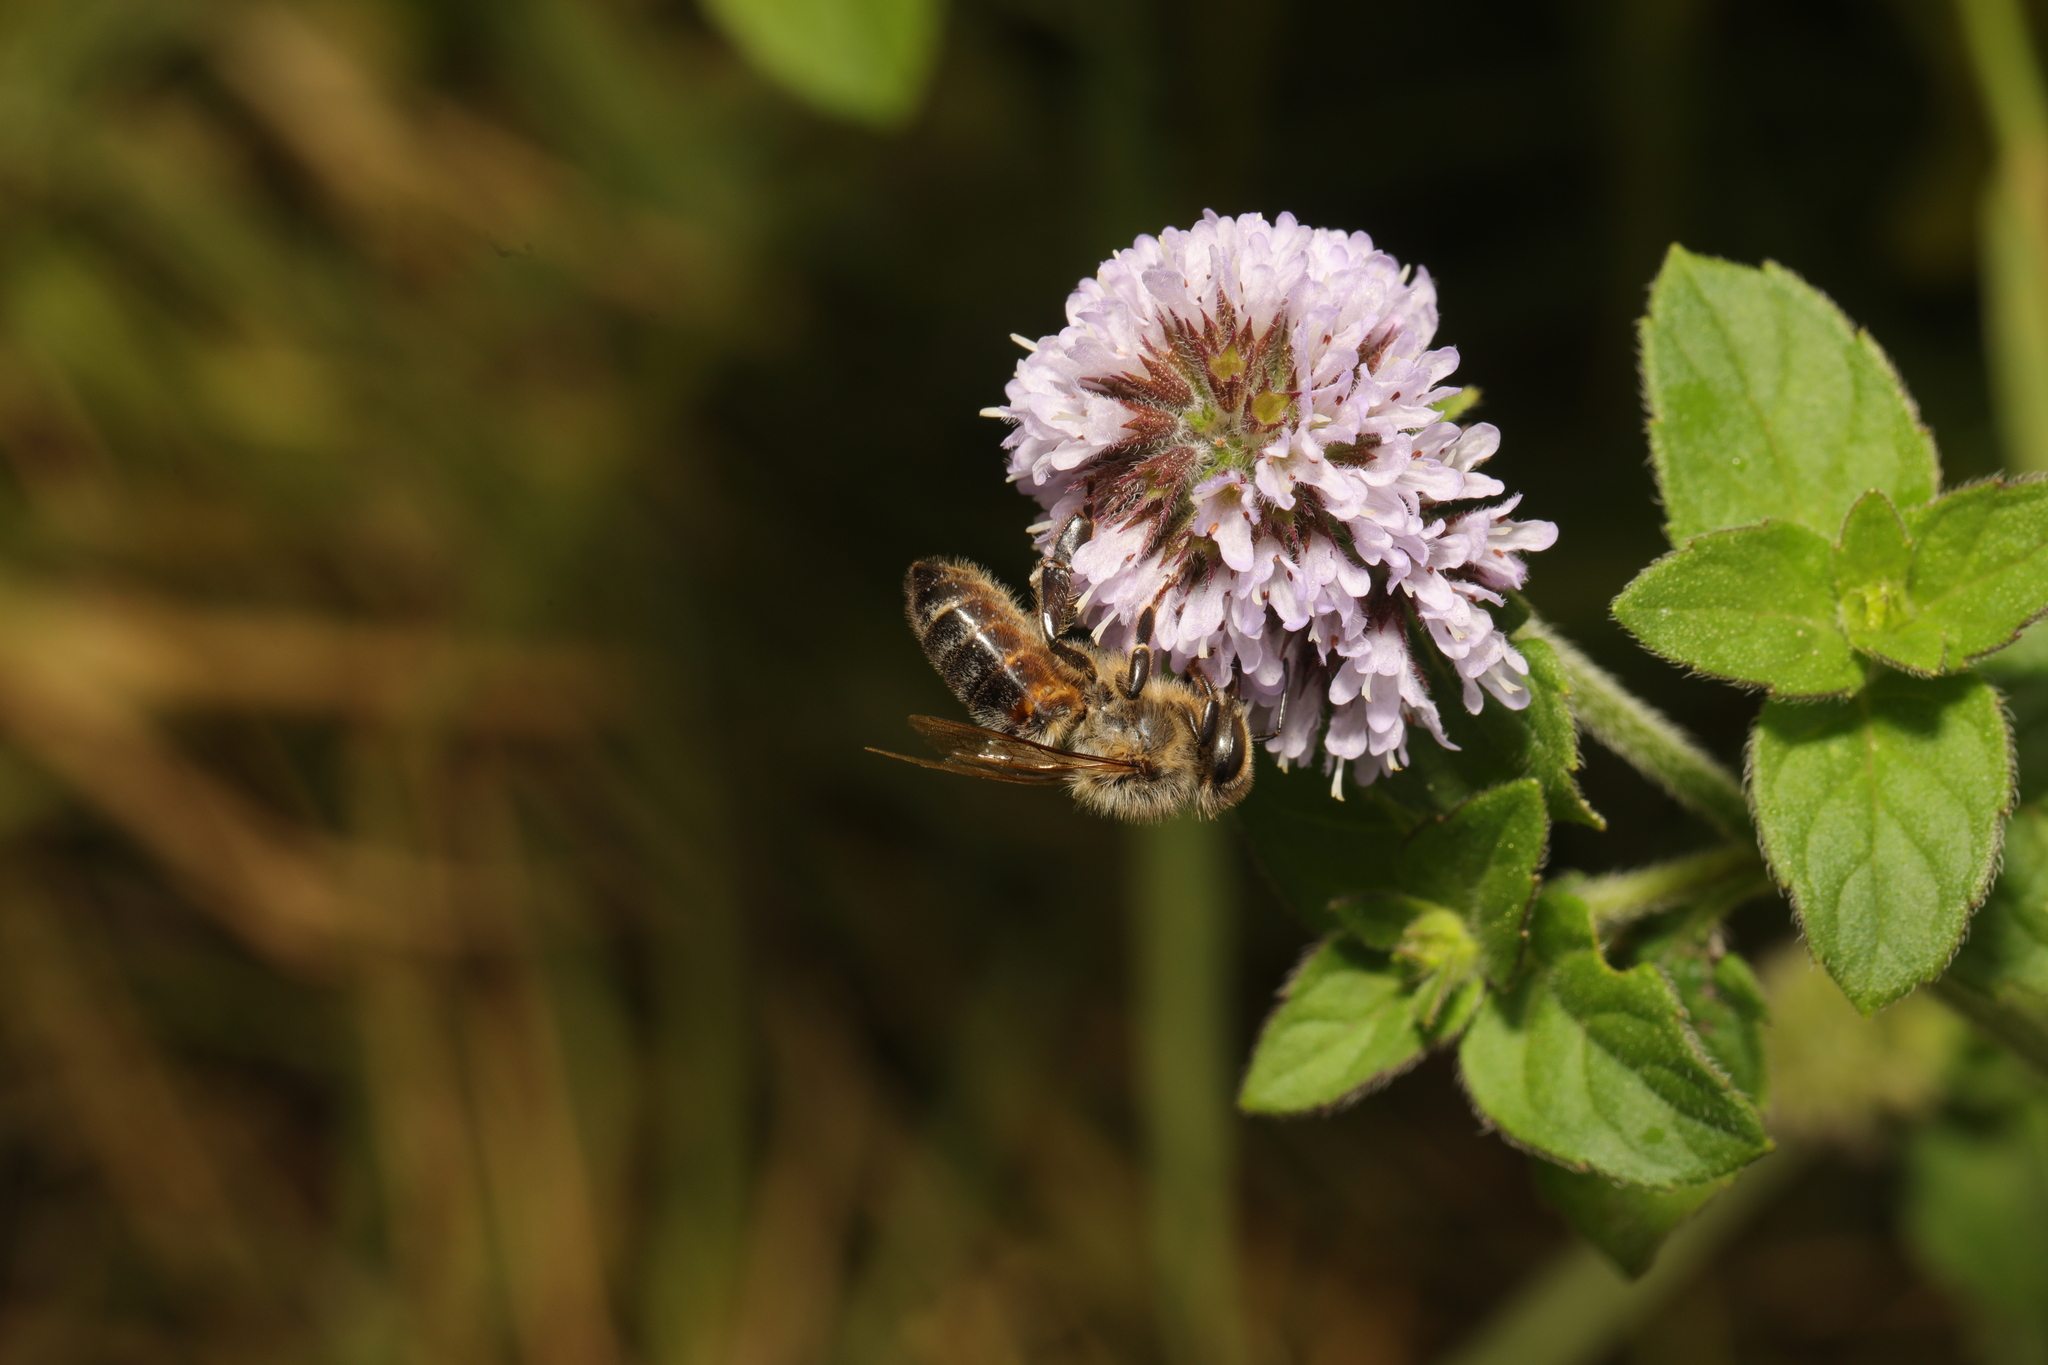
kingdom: Animalia
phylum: Arthropoda
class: Insecta
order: Hymenoptera
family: Apidae
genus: Apis
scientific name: Apis mellifera
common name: Honey bee
